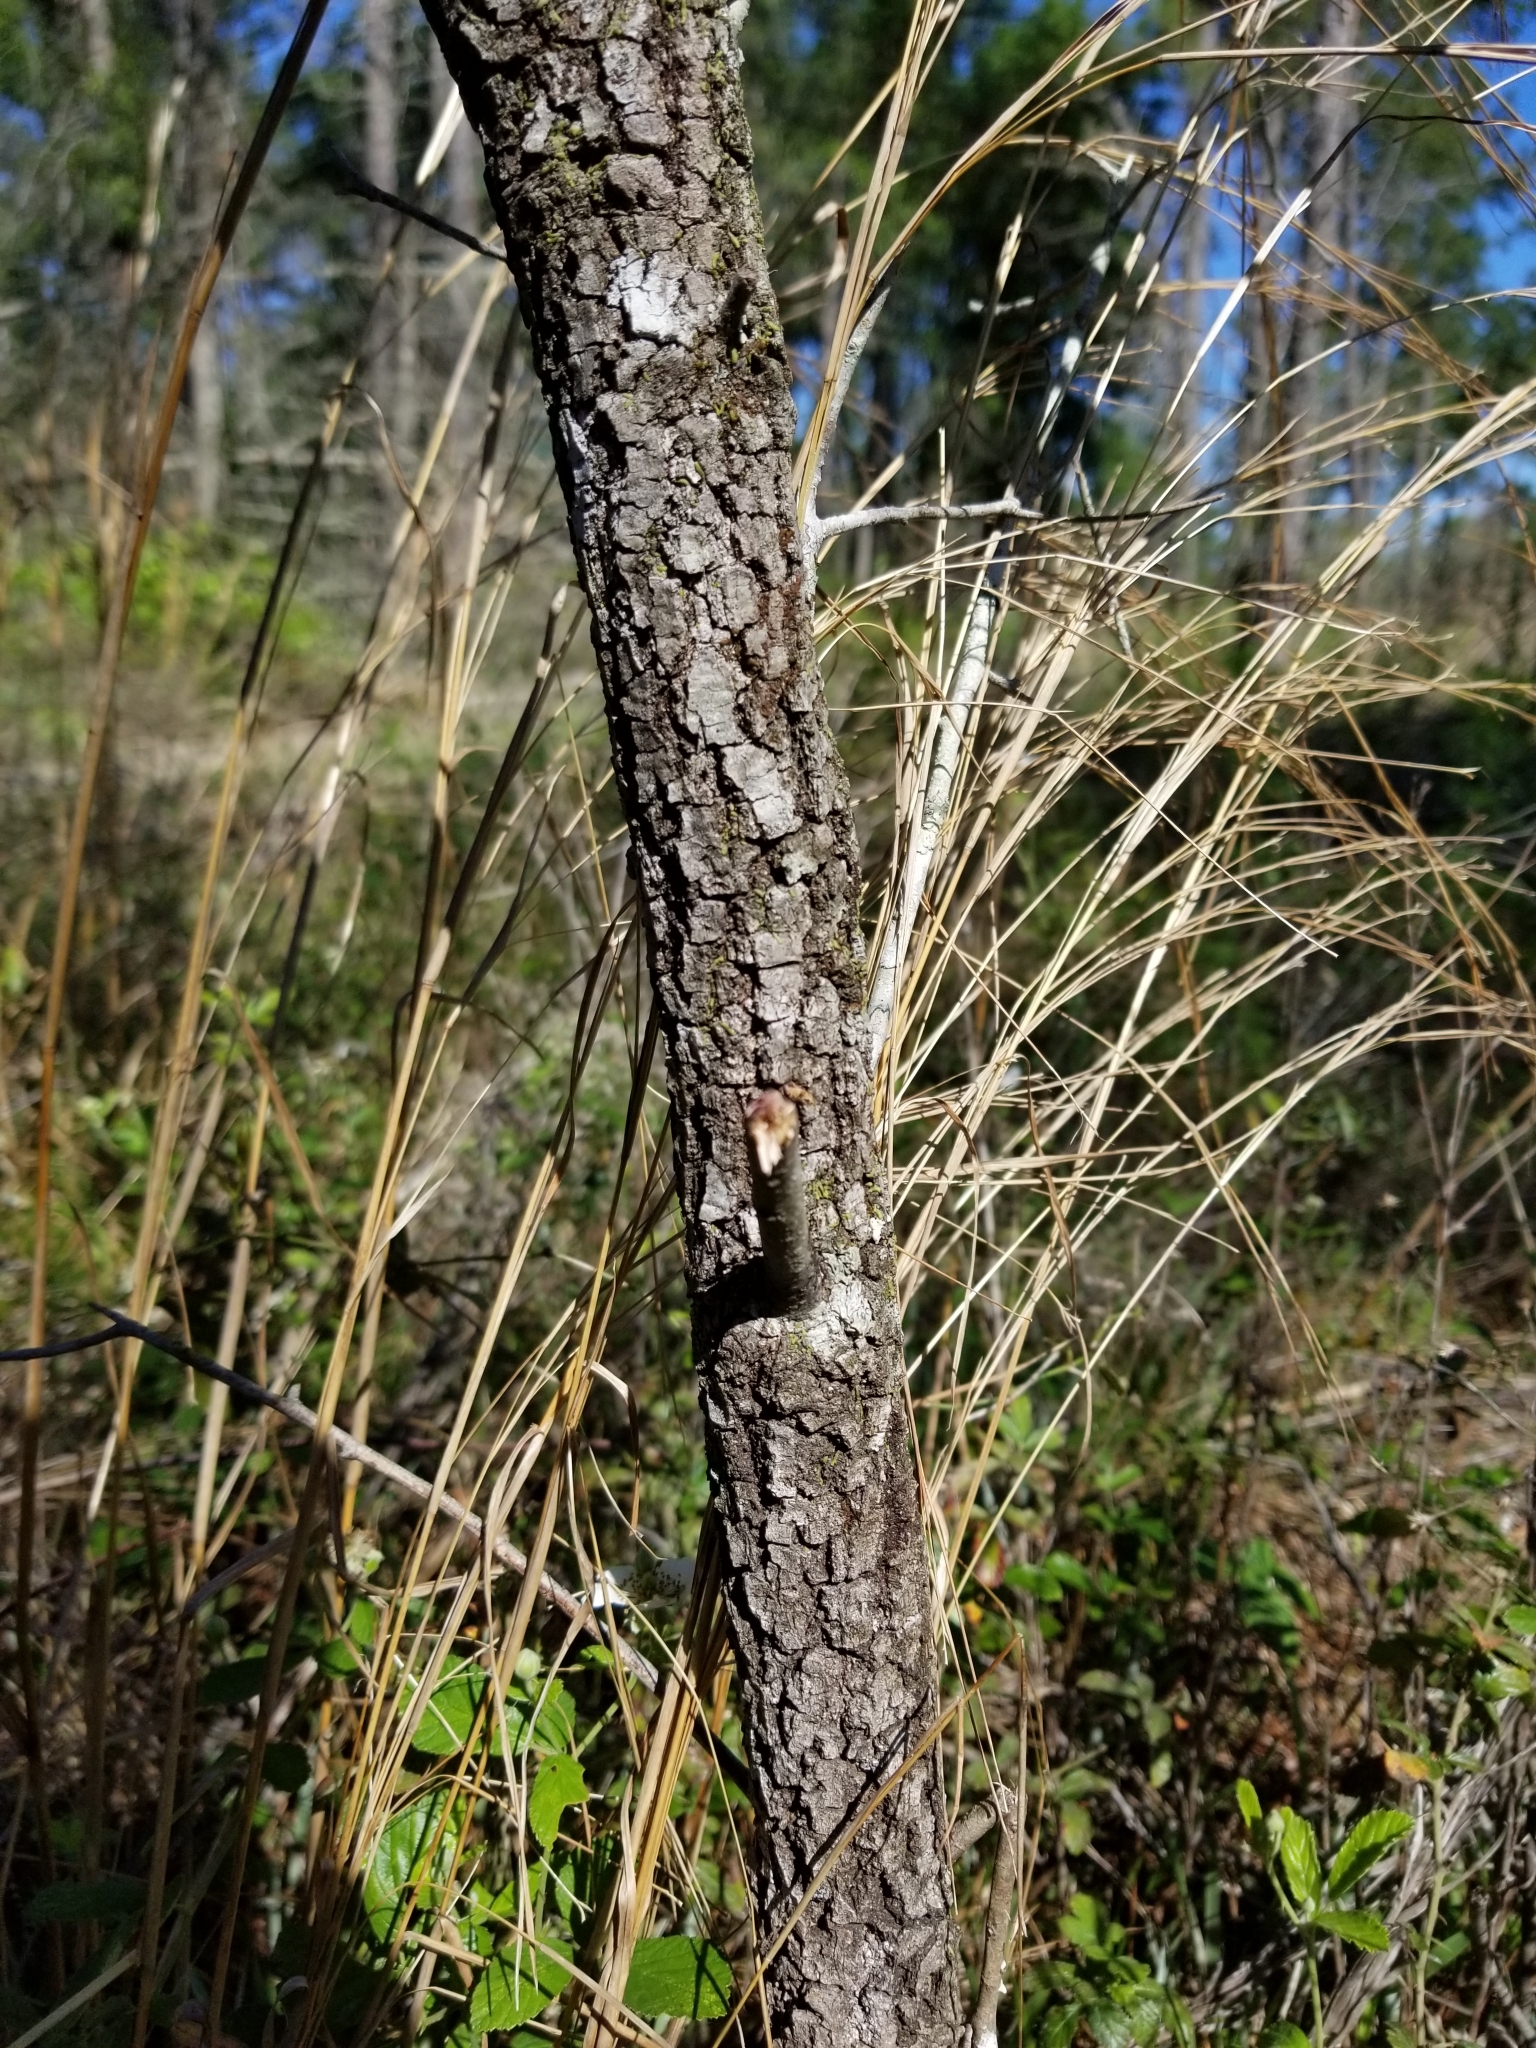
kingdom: Plantae
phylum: Tracheophyta
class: Magnoliopsida
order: Fagales
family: Fagaceae
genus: Quercus
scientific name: Quercus incana
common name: Bluejack oak
